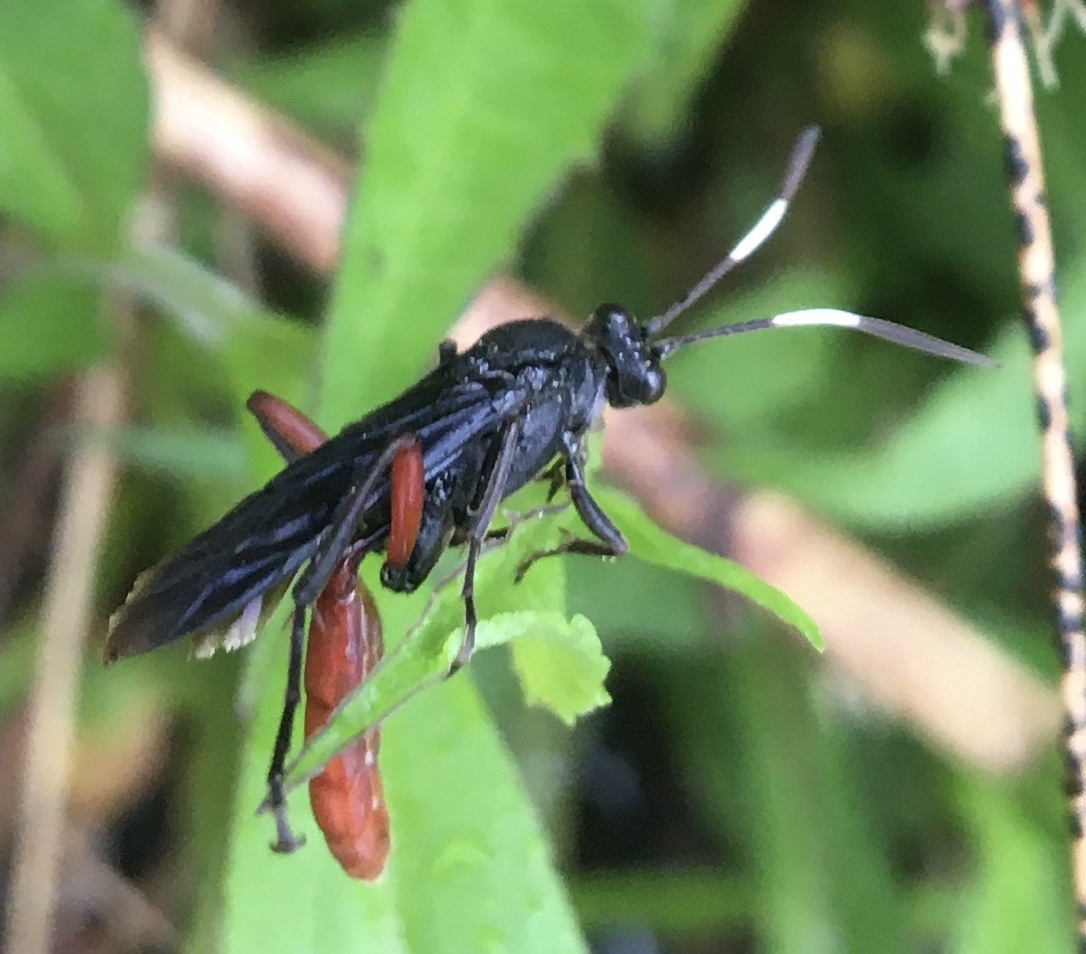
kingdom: Animalia
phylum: Arthropoda
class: Insecta
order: Hymenoptera
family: Ichneumonidae
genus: Limonethe
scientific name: Limonethe maurator
